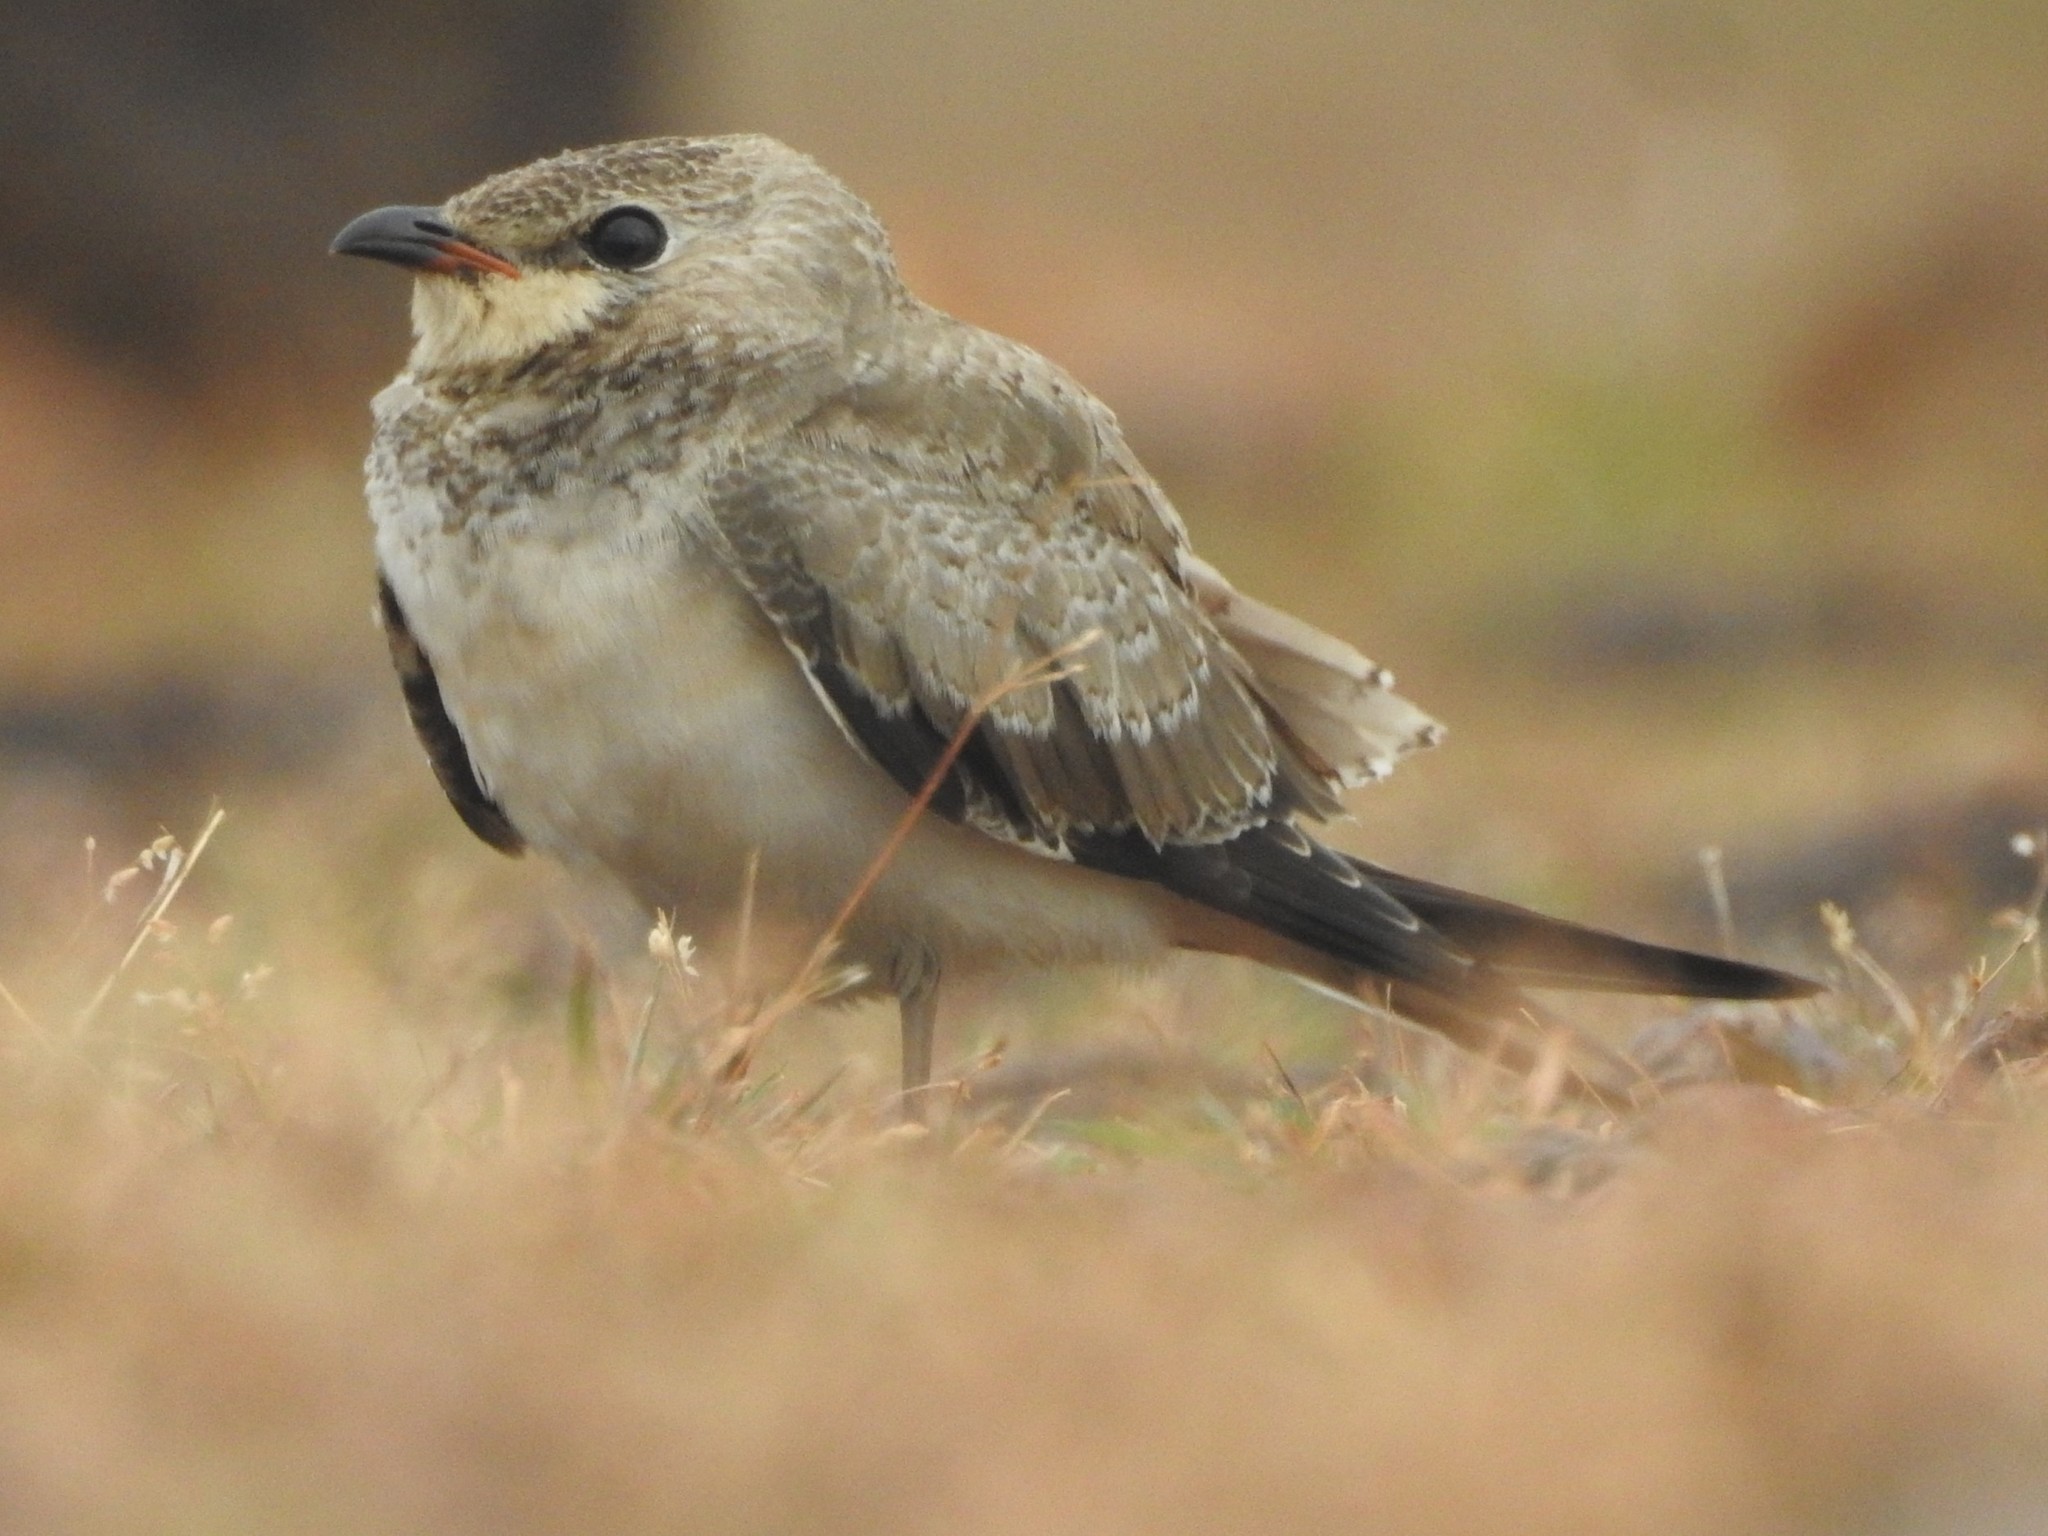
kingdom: Animalia
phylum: Chordata
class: Aves
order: Charadriiformes
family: Glareolidae
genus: Glareola
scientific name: Glareola lactea
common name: Small pratincole
